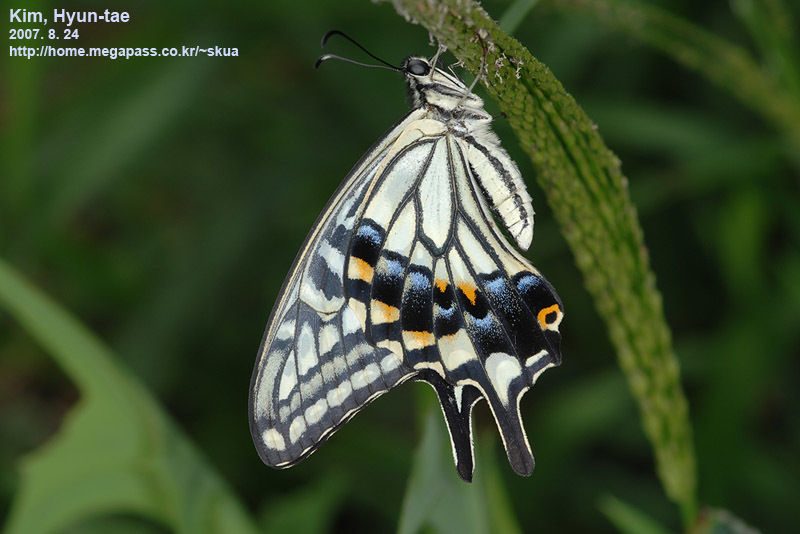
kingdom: Animalia
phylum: Arthropoda
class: Insecta
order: Lepidoptera
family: Papilionidae
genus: Papilio
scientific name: Papilio xuthus
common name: Asian swallowtail
